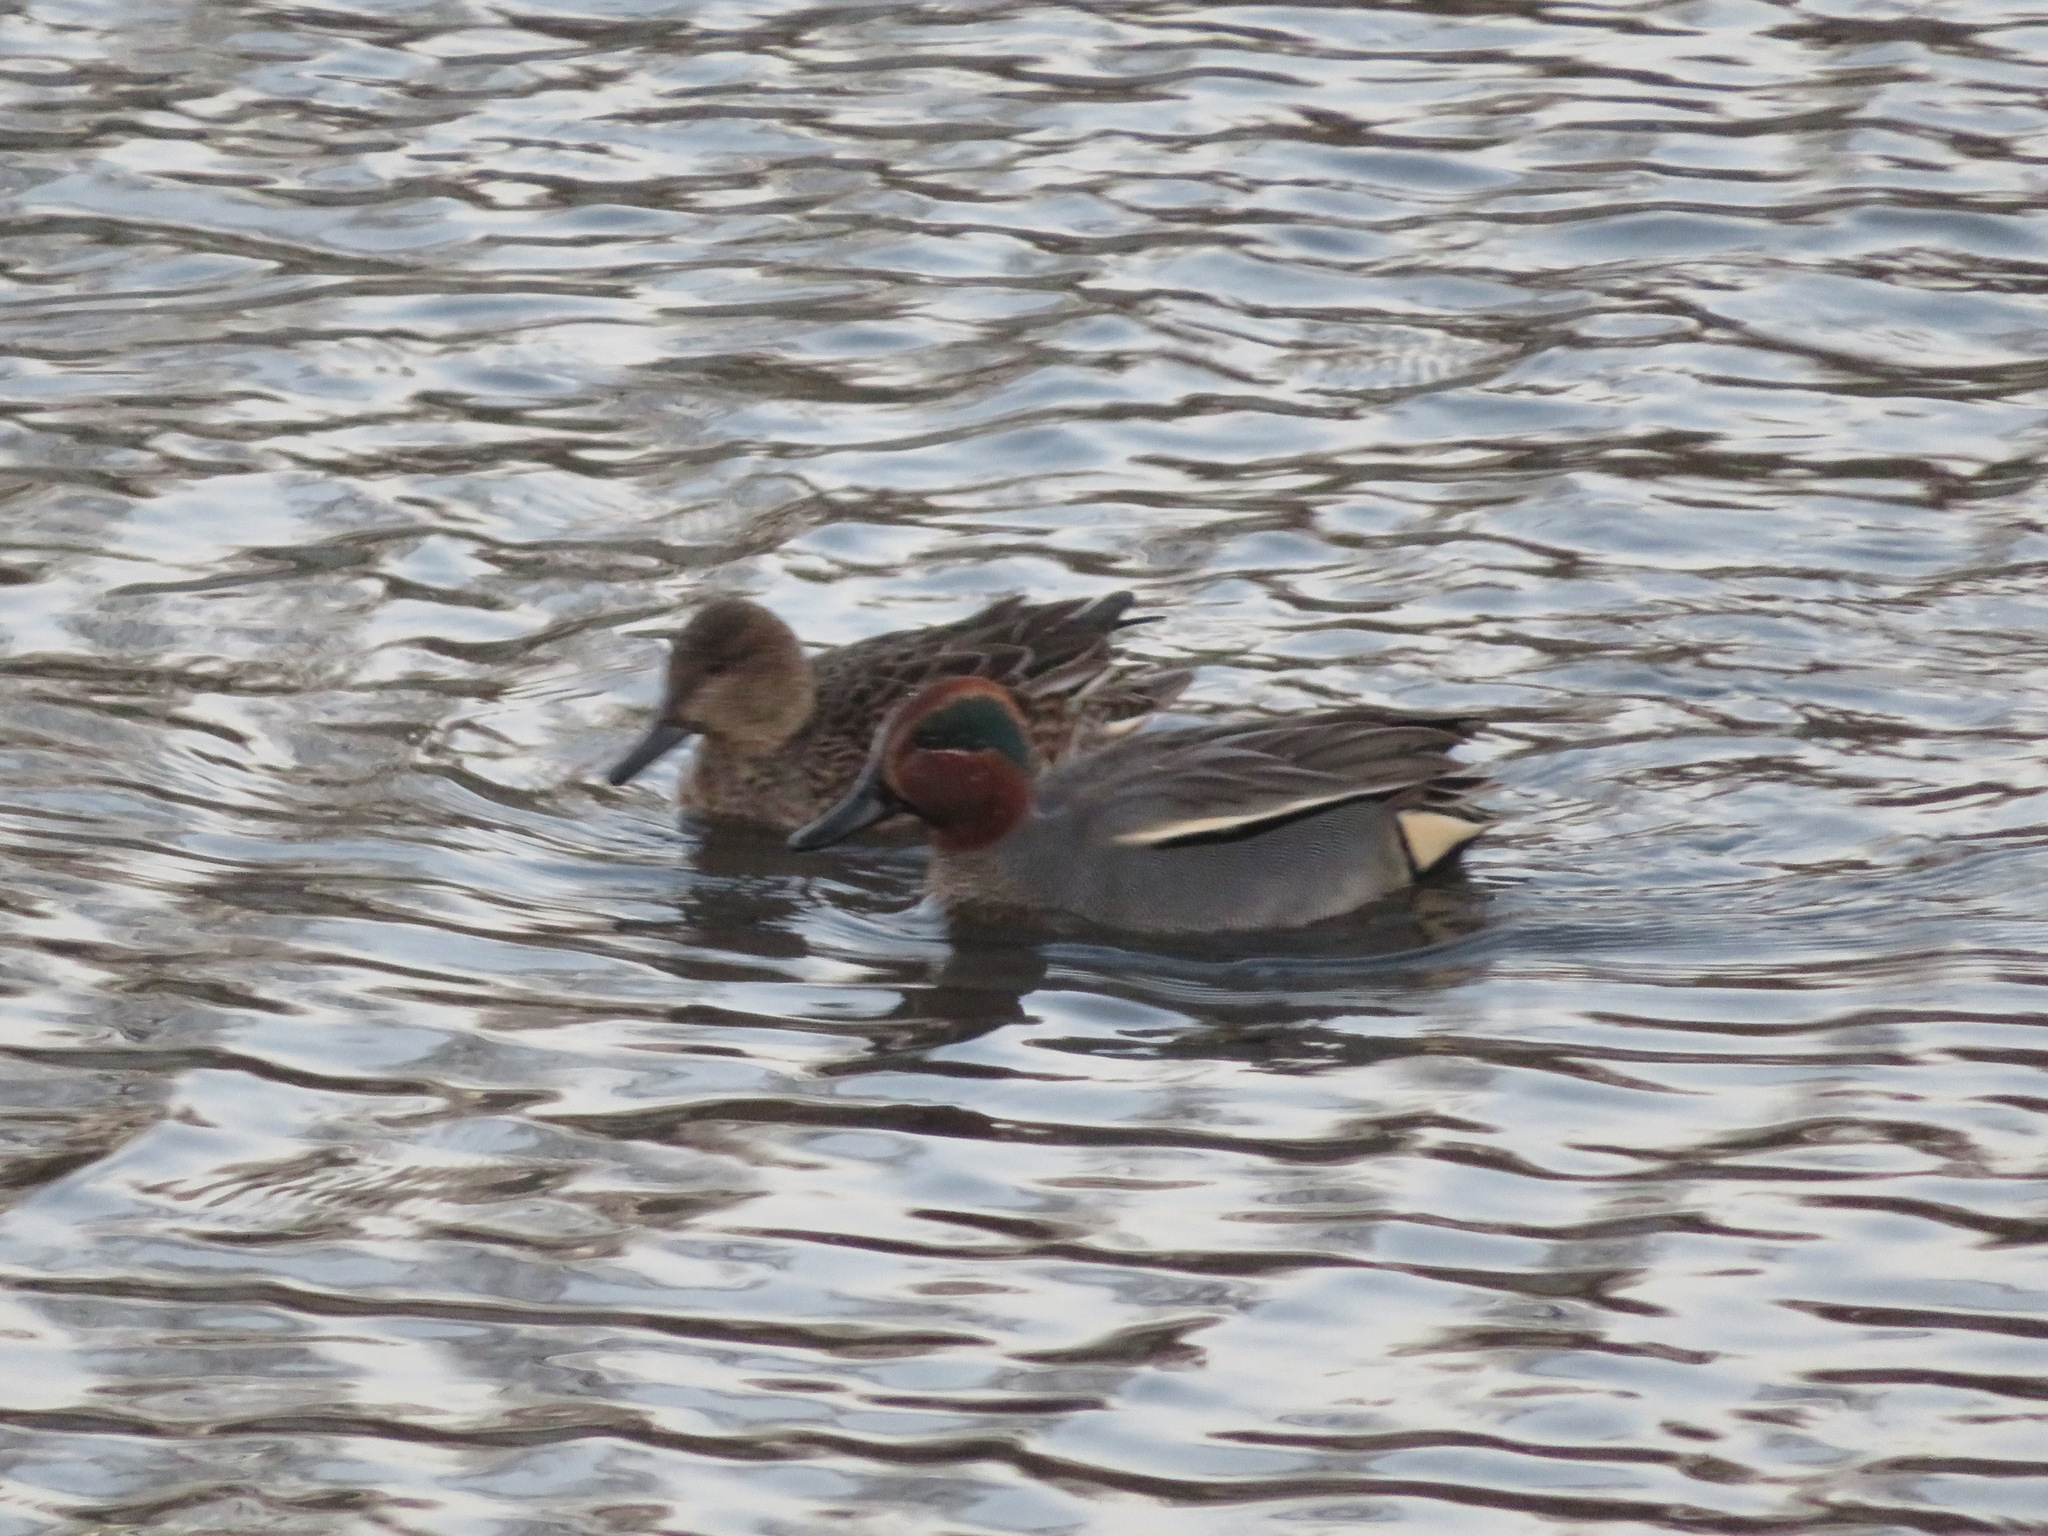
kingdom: Animalia
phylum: Chordata
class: Aves
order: Anseriformes
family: Anatidae
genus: Anas
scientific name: Anas crecca
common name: Eurasian teal
